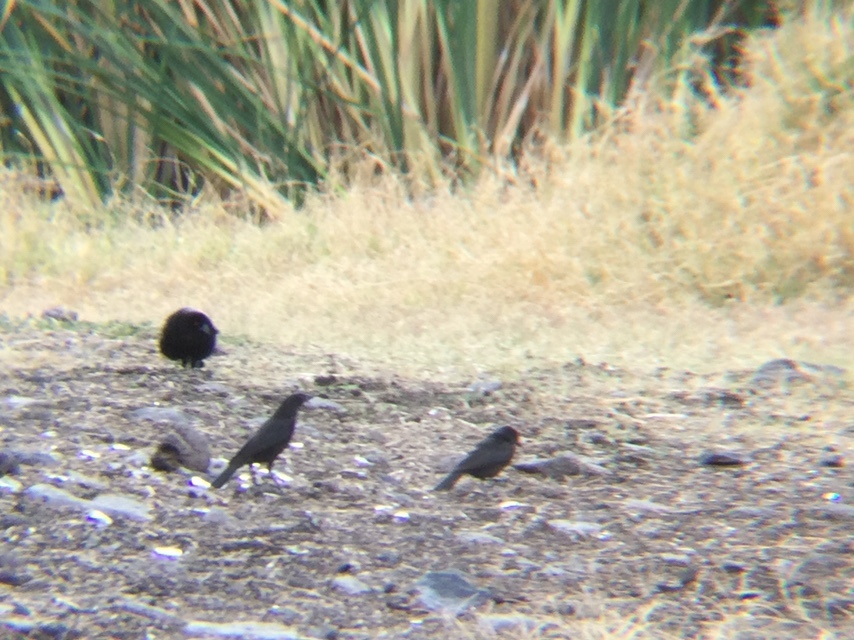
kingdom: Animalia
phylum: Chordata
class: Aves
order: Passeriformes
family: Icteridae
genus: Molothrus
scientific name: Molothrus aeneus
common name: Bronzed cowbird
